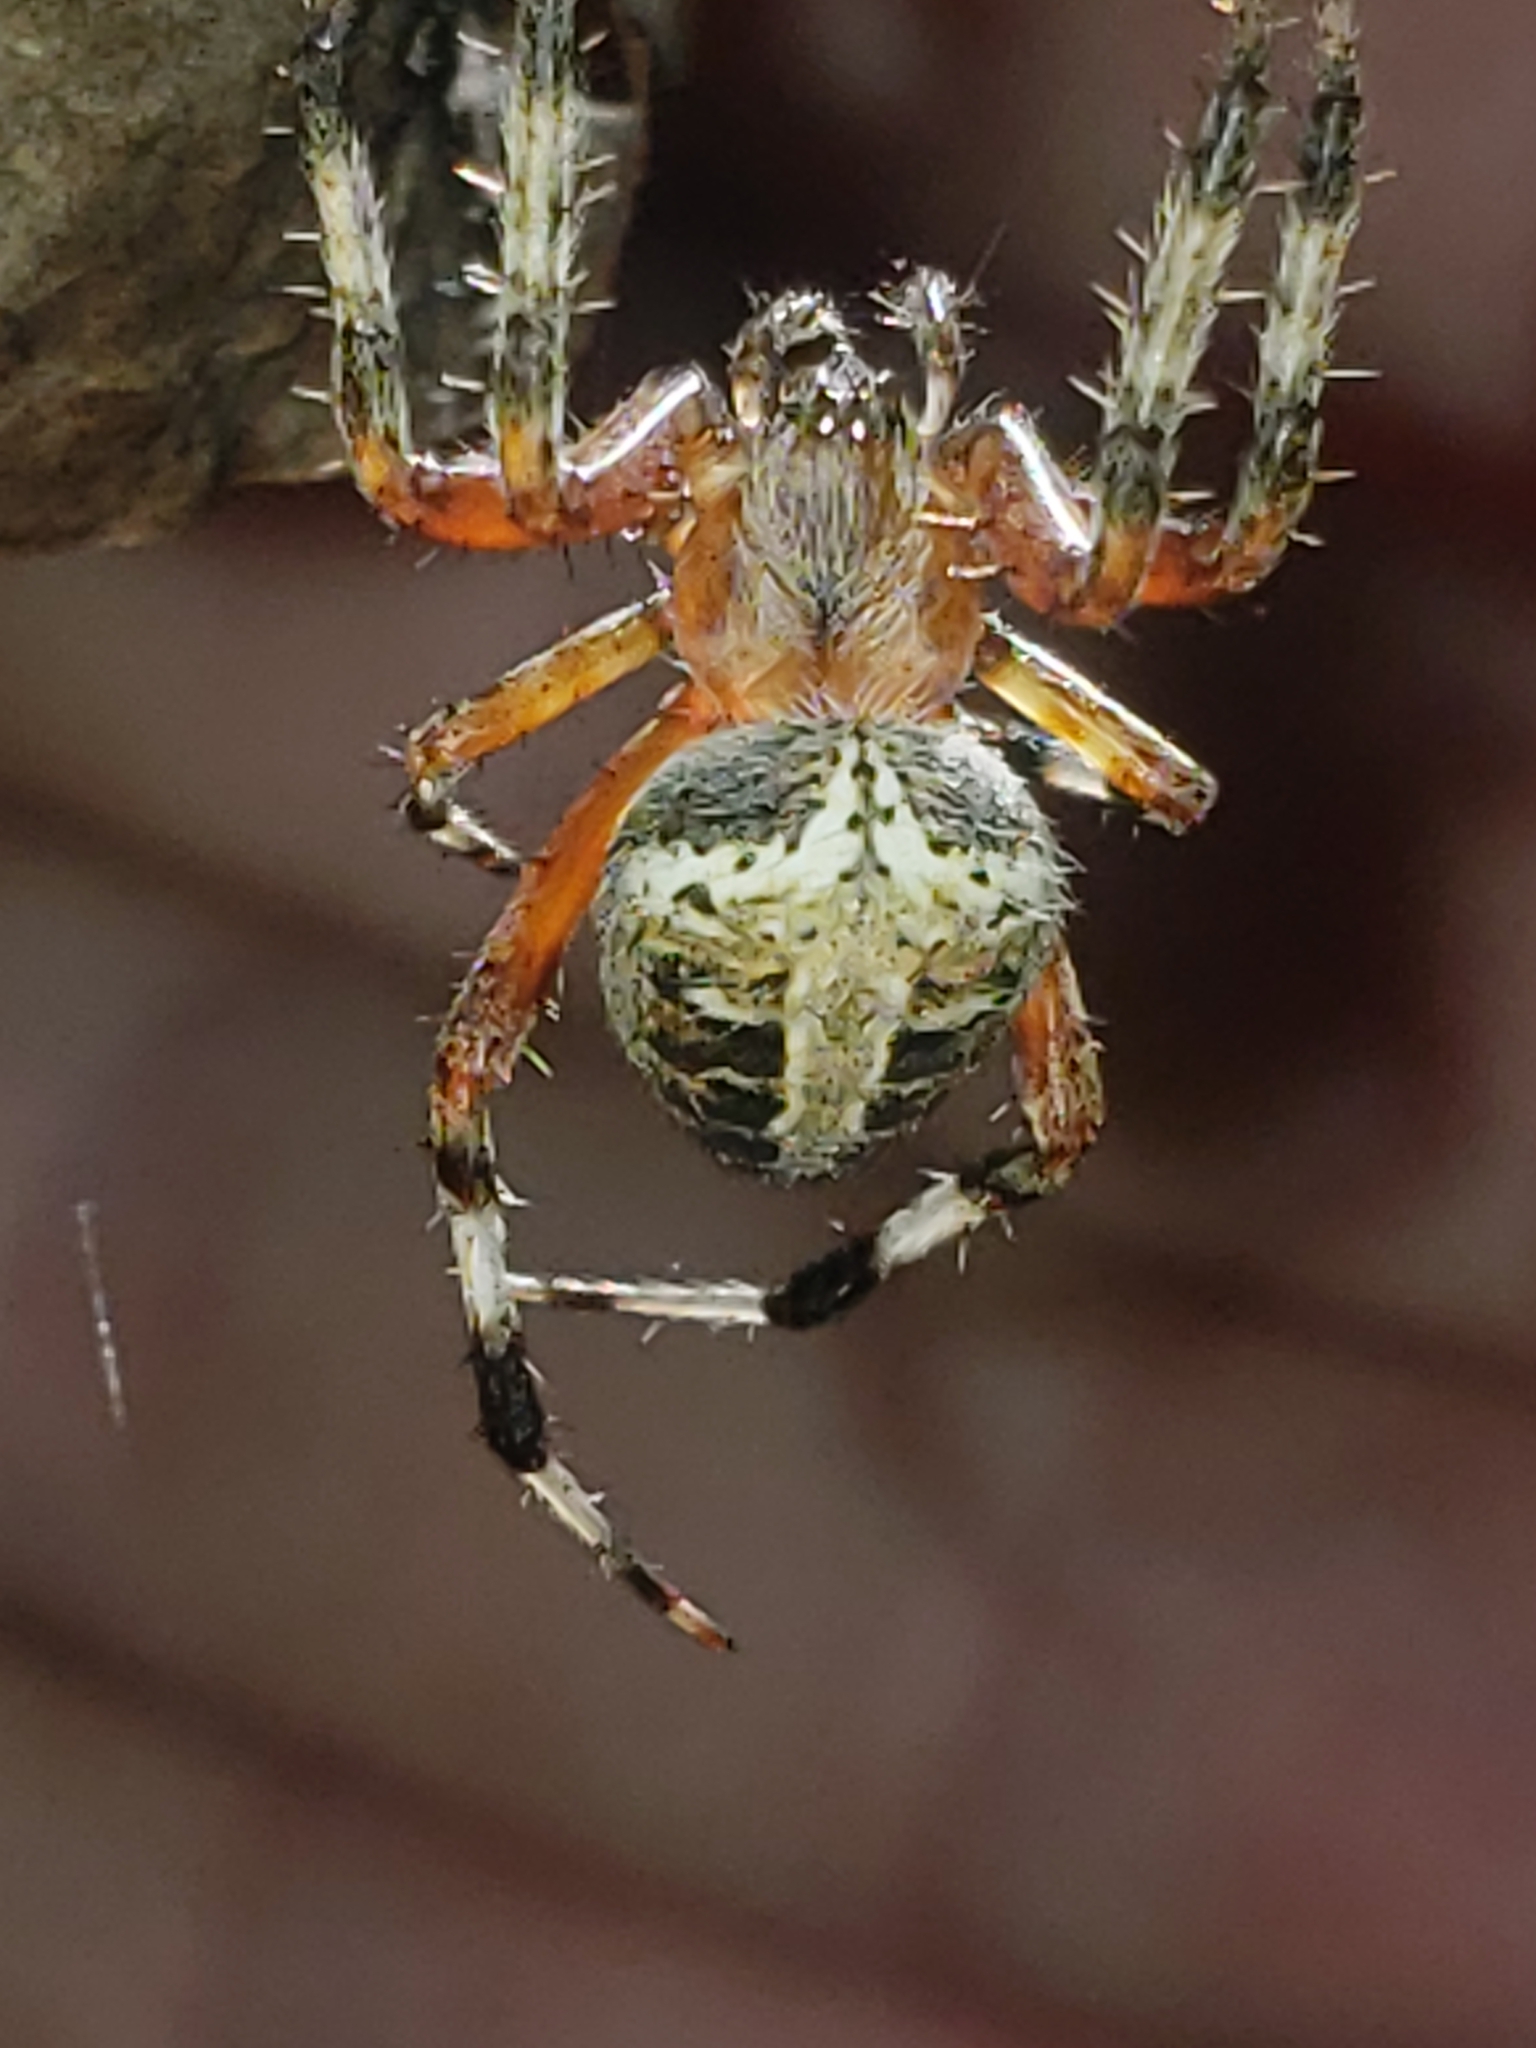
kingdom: Animalia
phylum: Arthropoda
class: Arachnida
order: Araneae
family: Araneidae
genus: Neoscona
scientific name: Neoscona domiciliorum
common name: Red-femured spotted orbweaver
